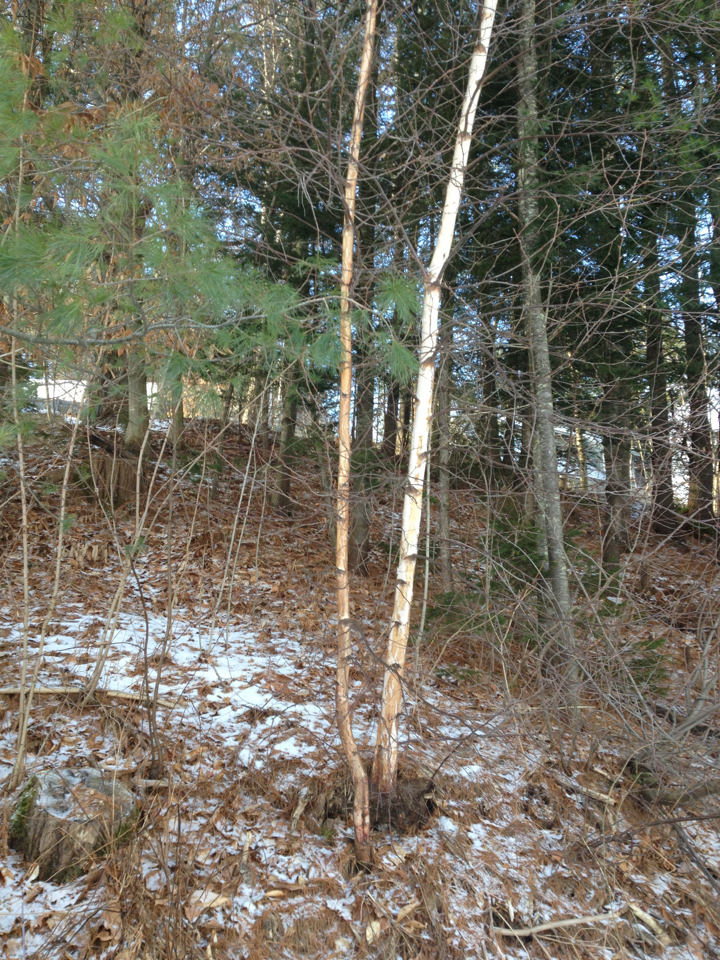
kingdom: Plantae
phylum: Tracheophyta
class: Magnoliopsida
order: Fagales
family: Betulaceae
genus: Betula
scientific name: Betula papyrifera
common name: Paper birch
